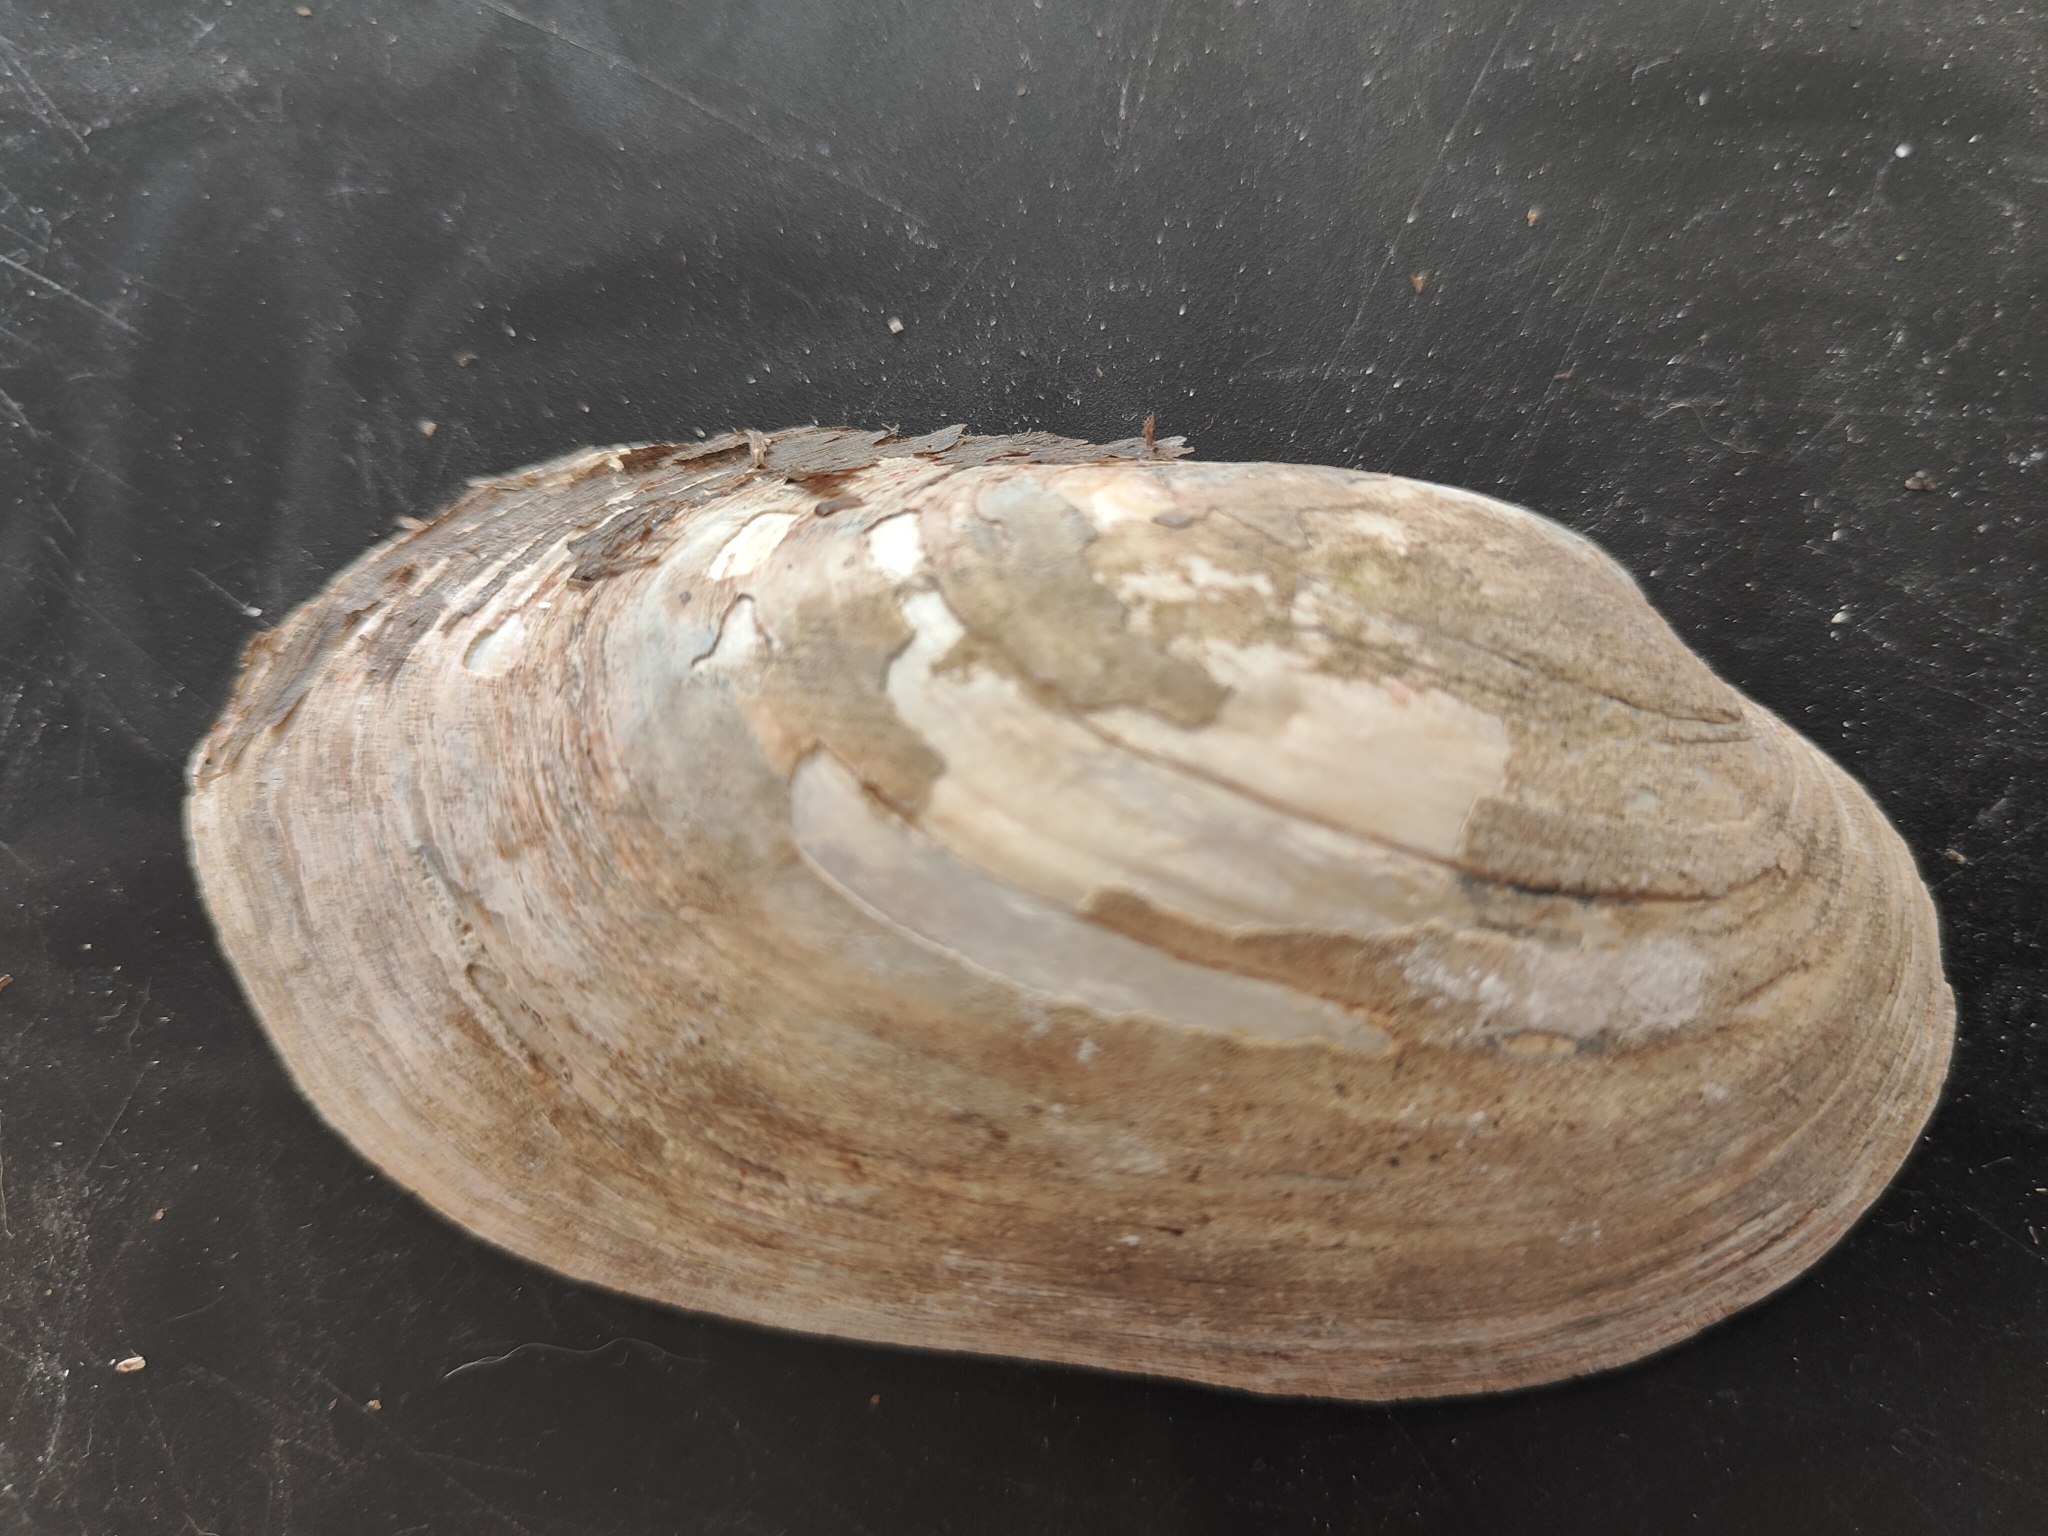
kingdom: Animalia
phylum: Mollusca
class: Bivalvia
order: Unionida
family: Unionidae
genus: Lampsilis
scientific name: Lampsilis siliquoidea
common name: Fatmucket
